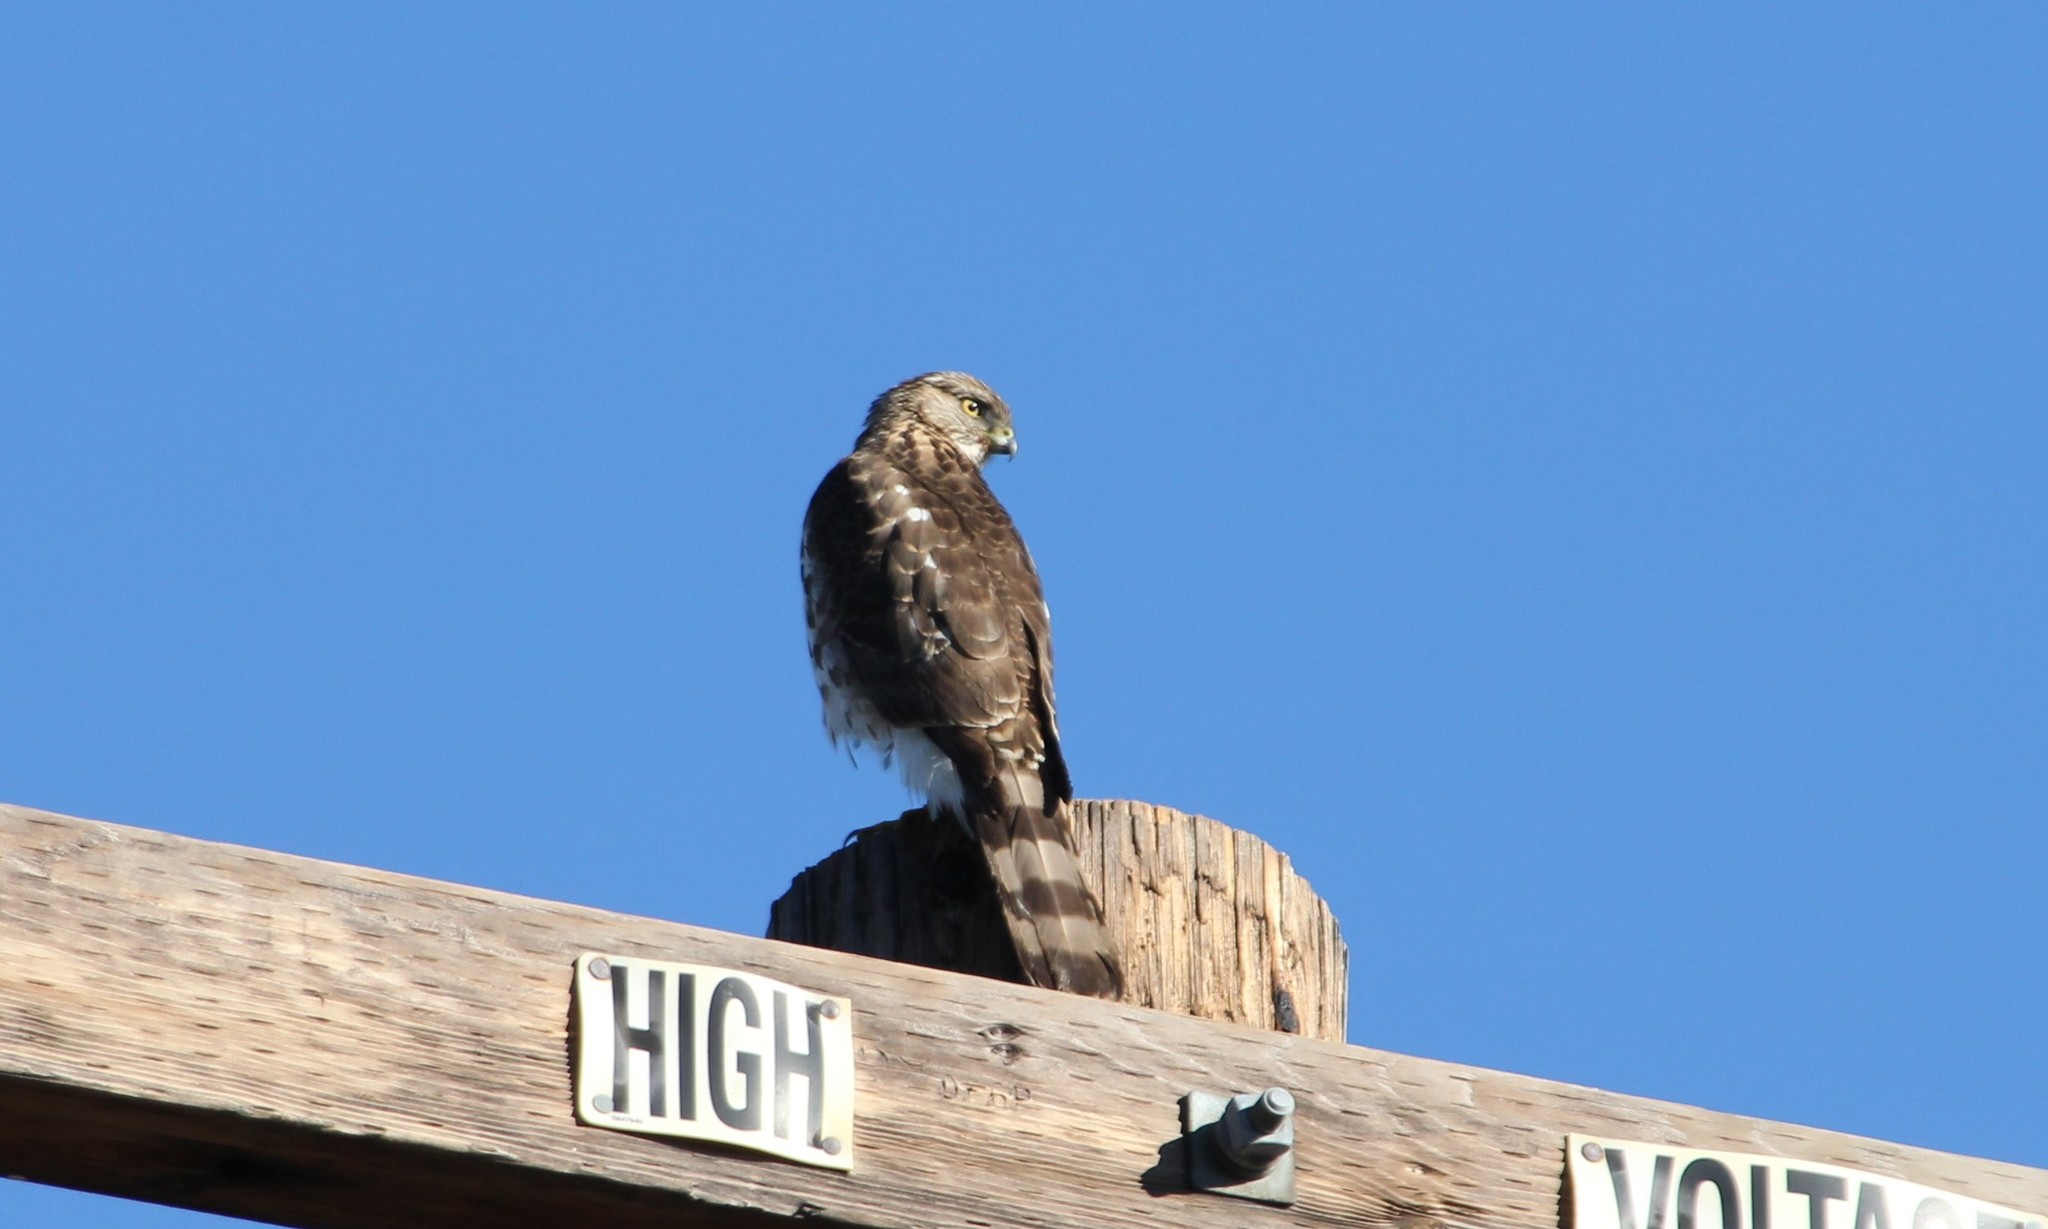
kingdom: Animalia
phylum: Chordata
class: Aves
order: Accipitriformes
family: Accipitridae
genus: Accipiter
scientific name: Accipiter cooperii
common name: Cooper's hawk
